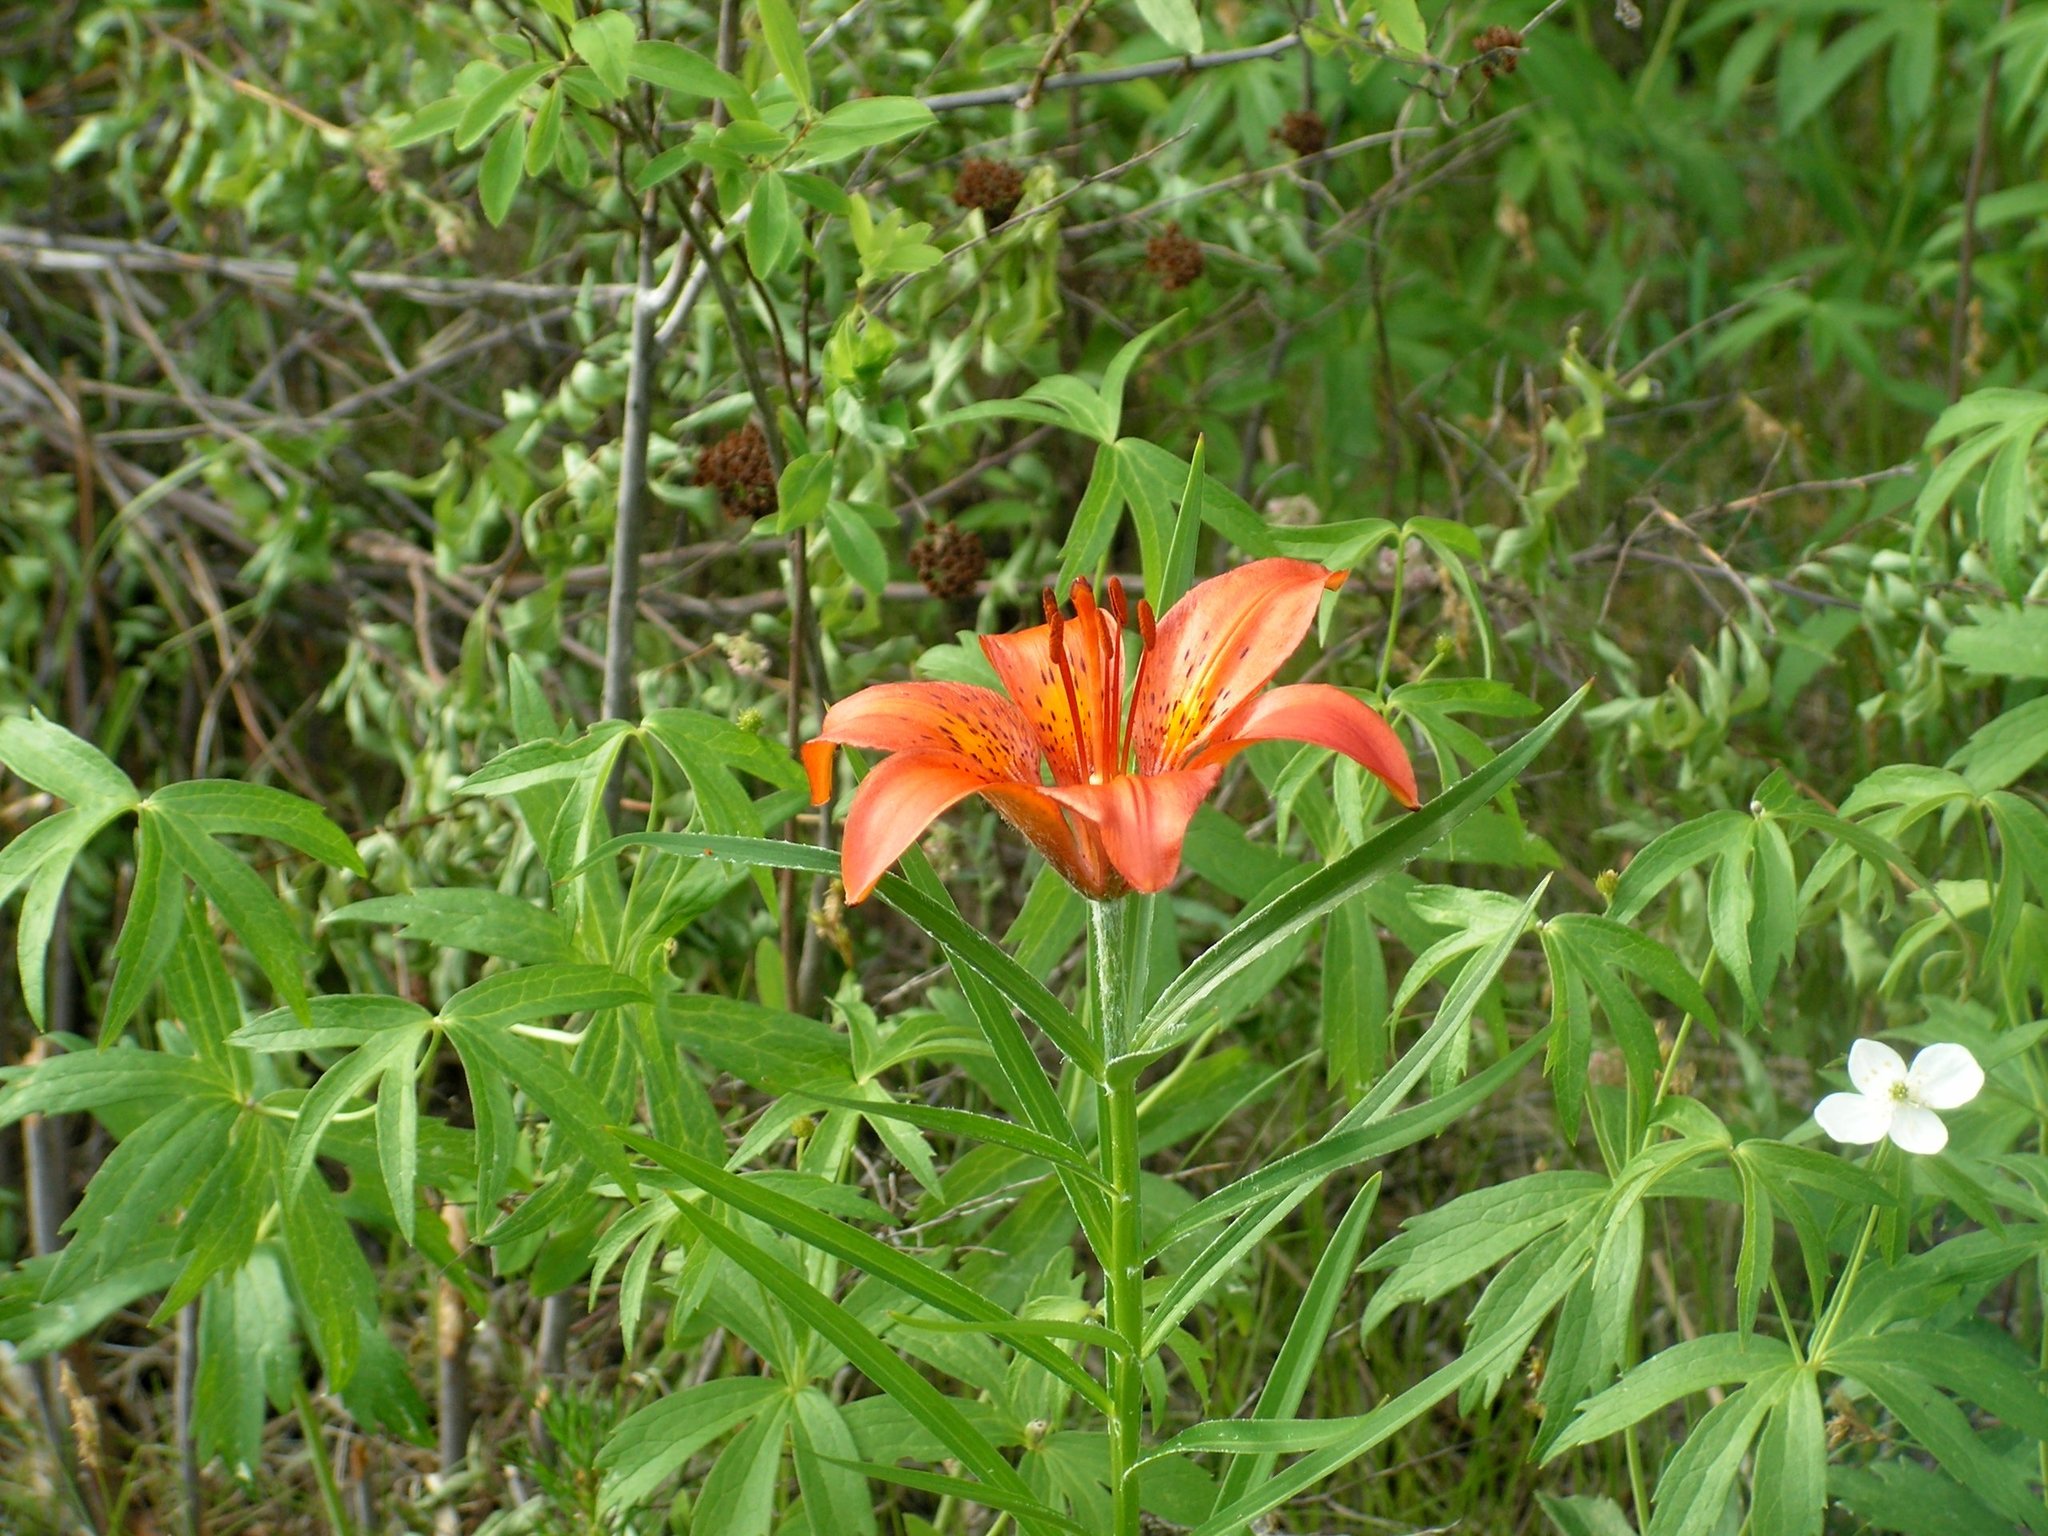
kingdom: Plantae
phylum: Tracheophyta
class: Liliopsida
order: Liliales
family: Liliaceae
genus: Lilium
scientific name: Lilium pensylvanicum
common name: Candlestick lily
